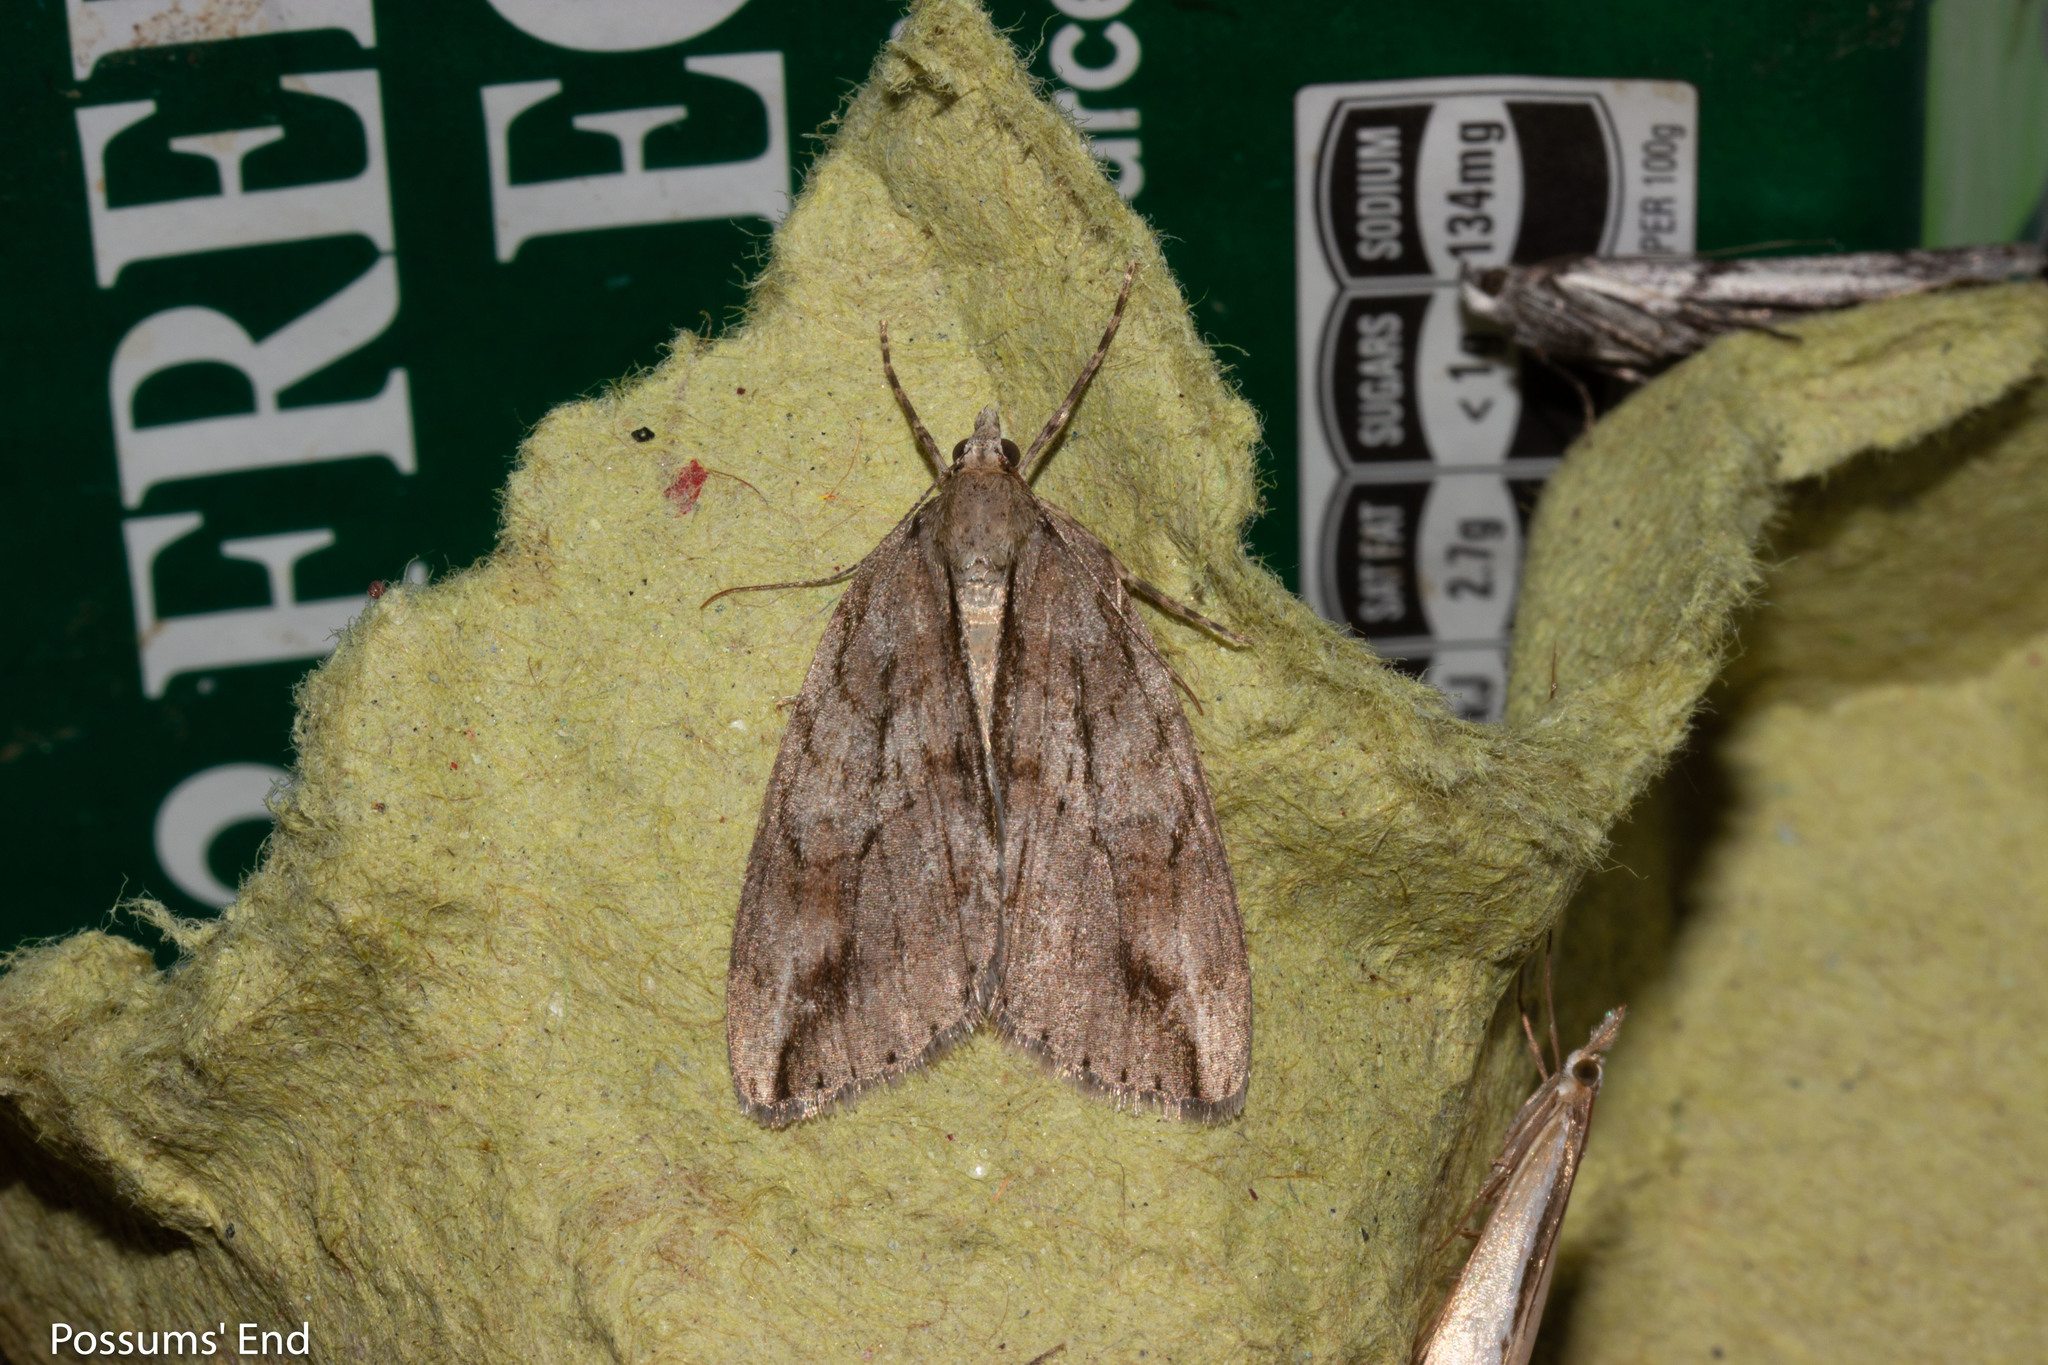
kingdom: Animalia
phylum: Arthropoda
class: Insecta
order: Lepidoptera
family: Geometridae
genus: Pseudocoremia
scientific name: Pseudocoremia lupinata
